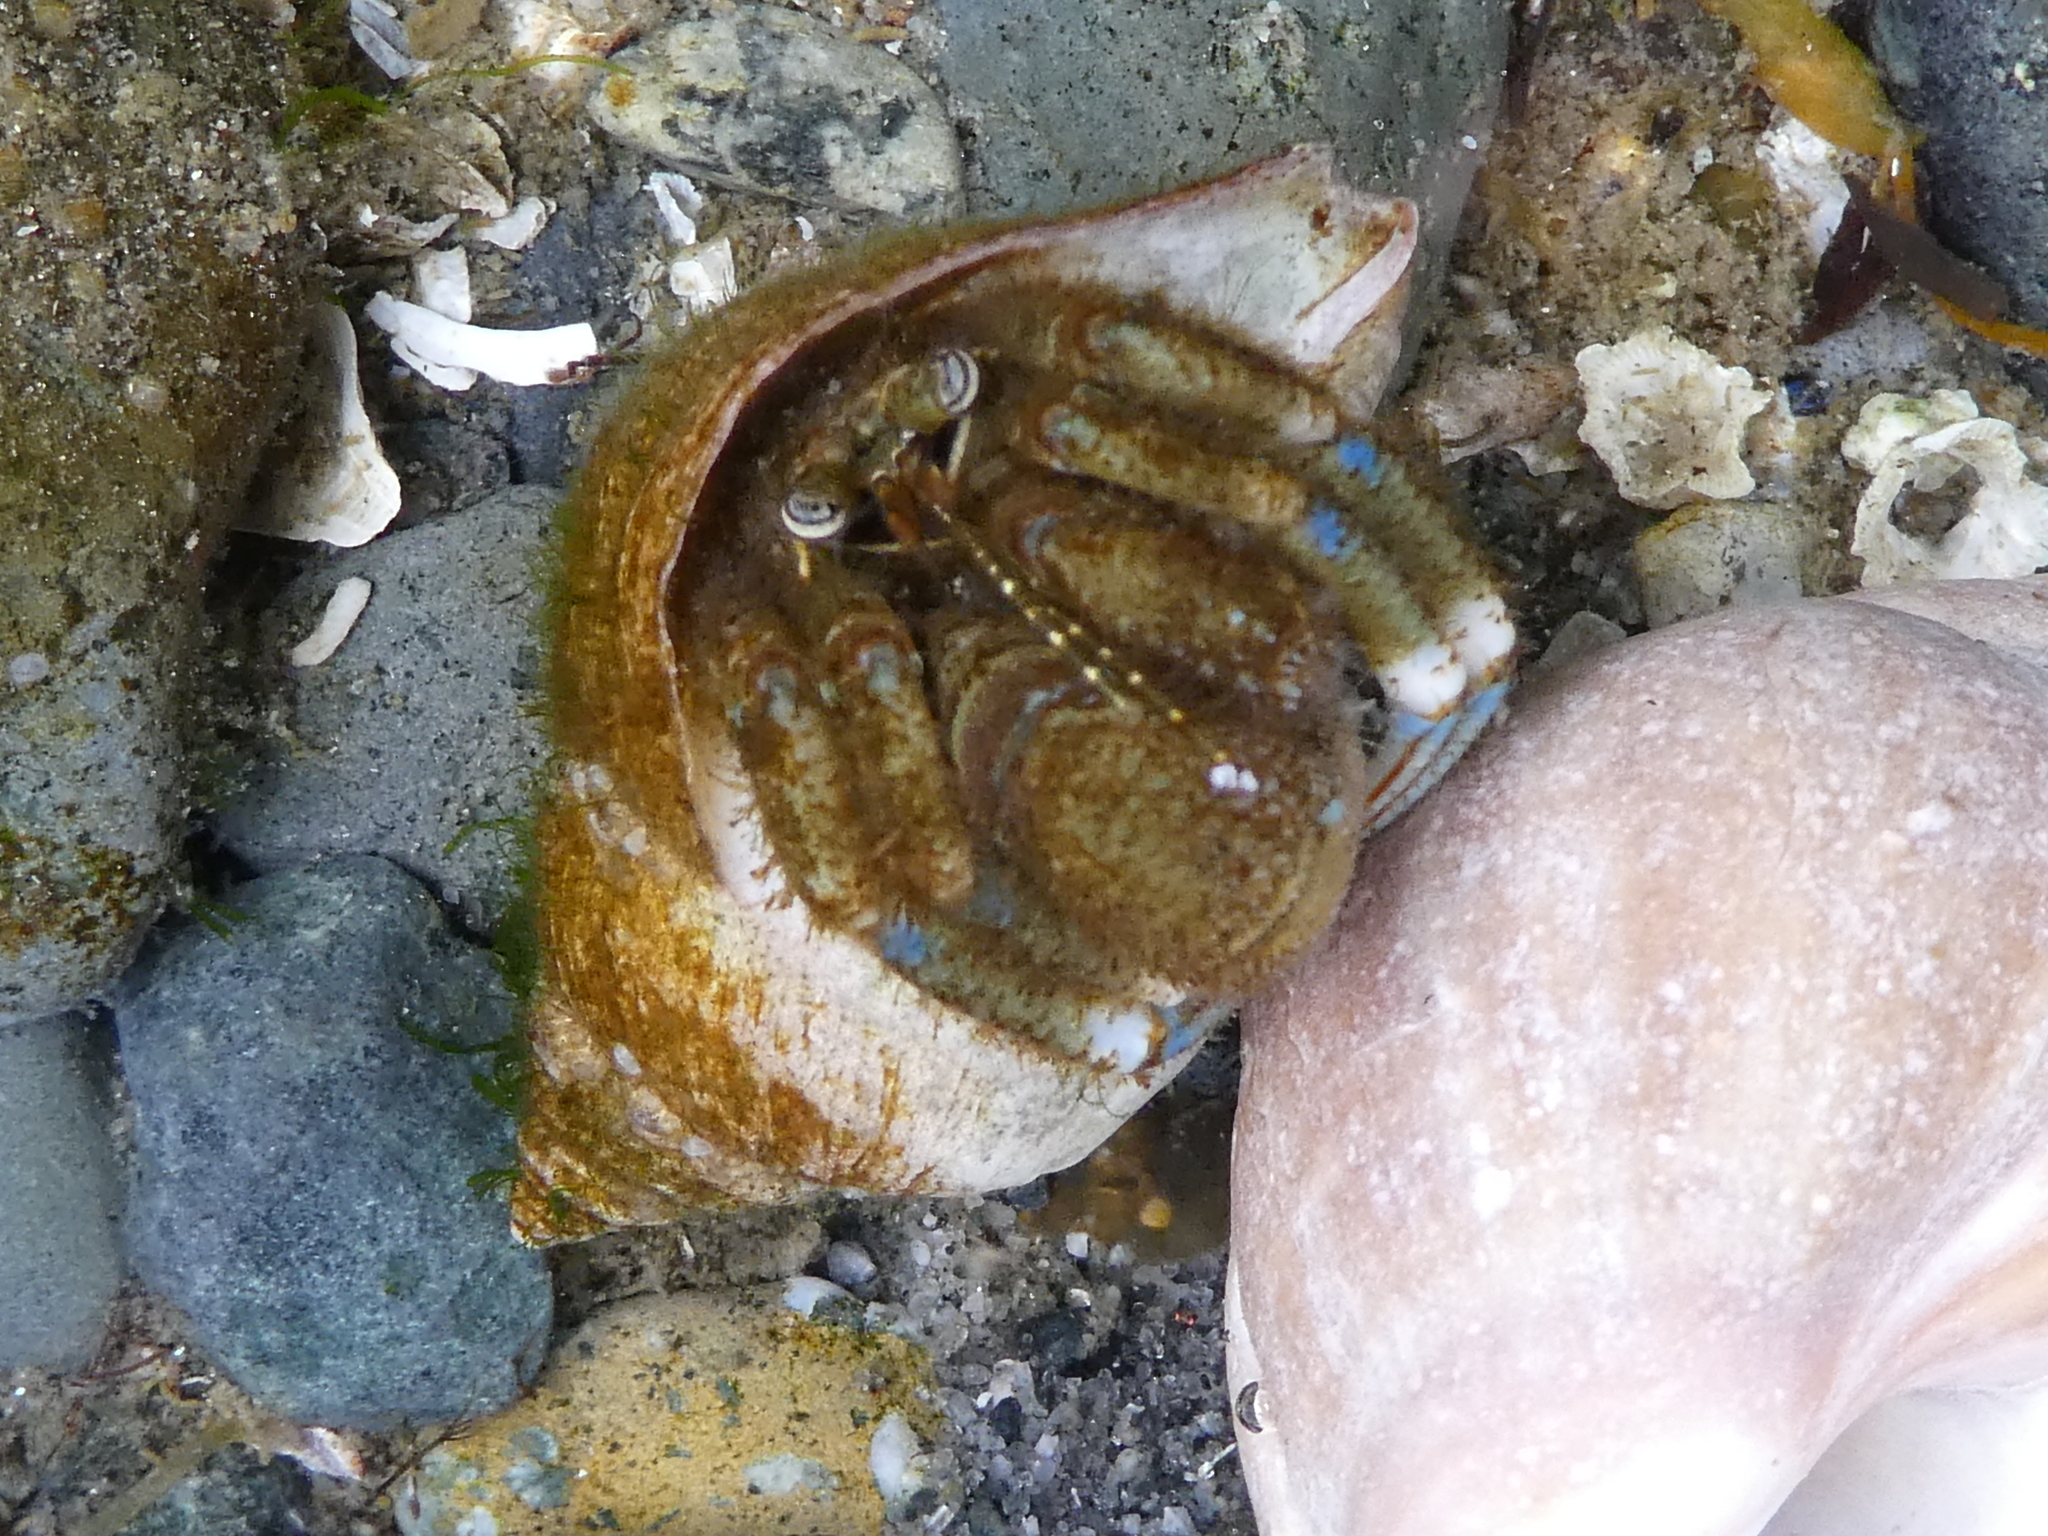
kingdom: Animalia
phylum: Arthropoda
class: Malacostraca
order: Decapoda
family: Paguridae
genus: Pagurus
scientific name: Pagurus hirsutiusculus
